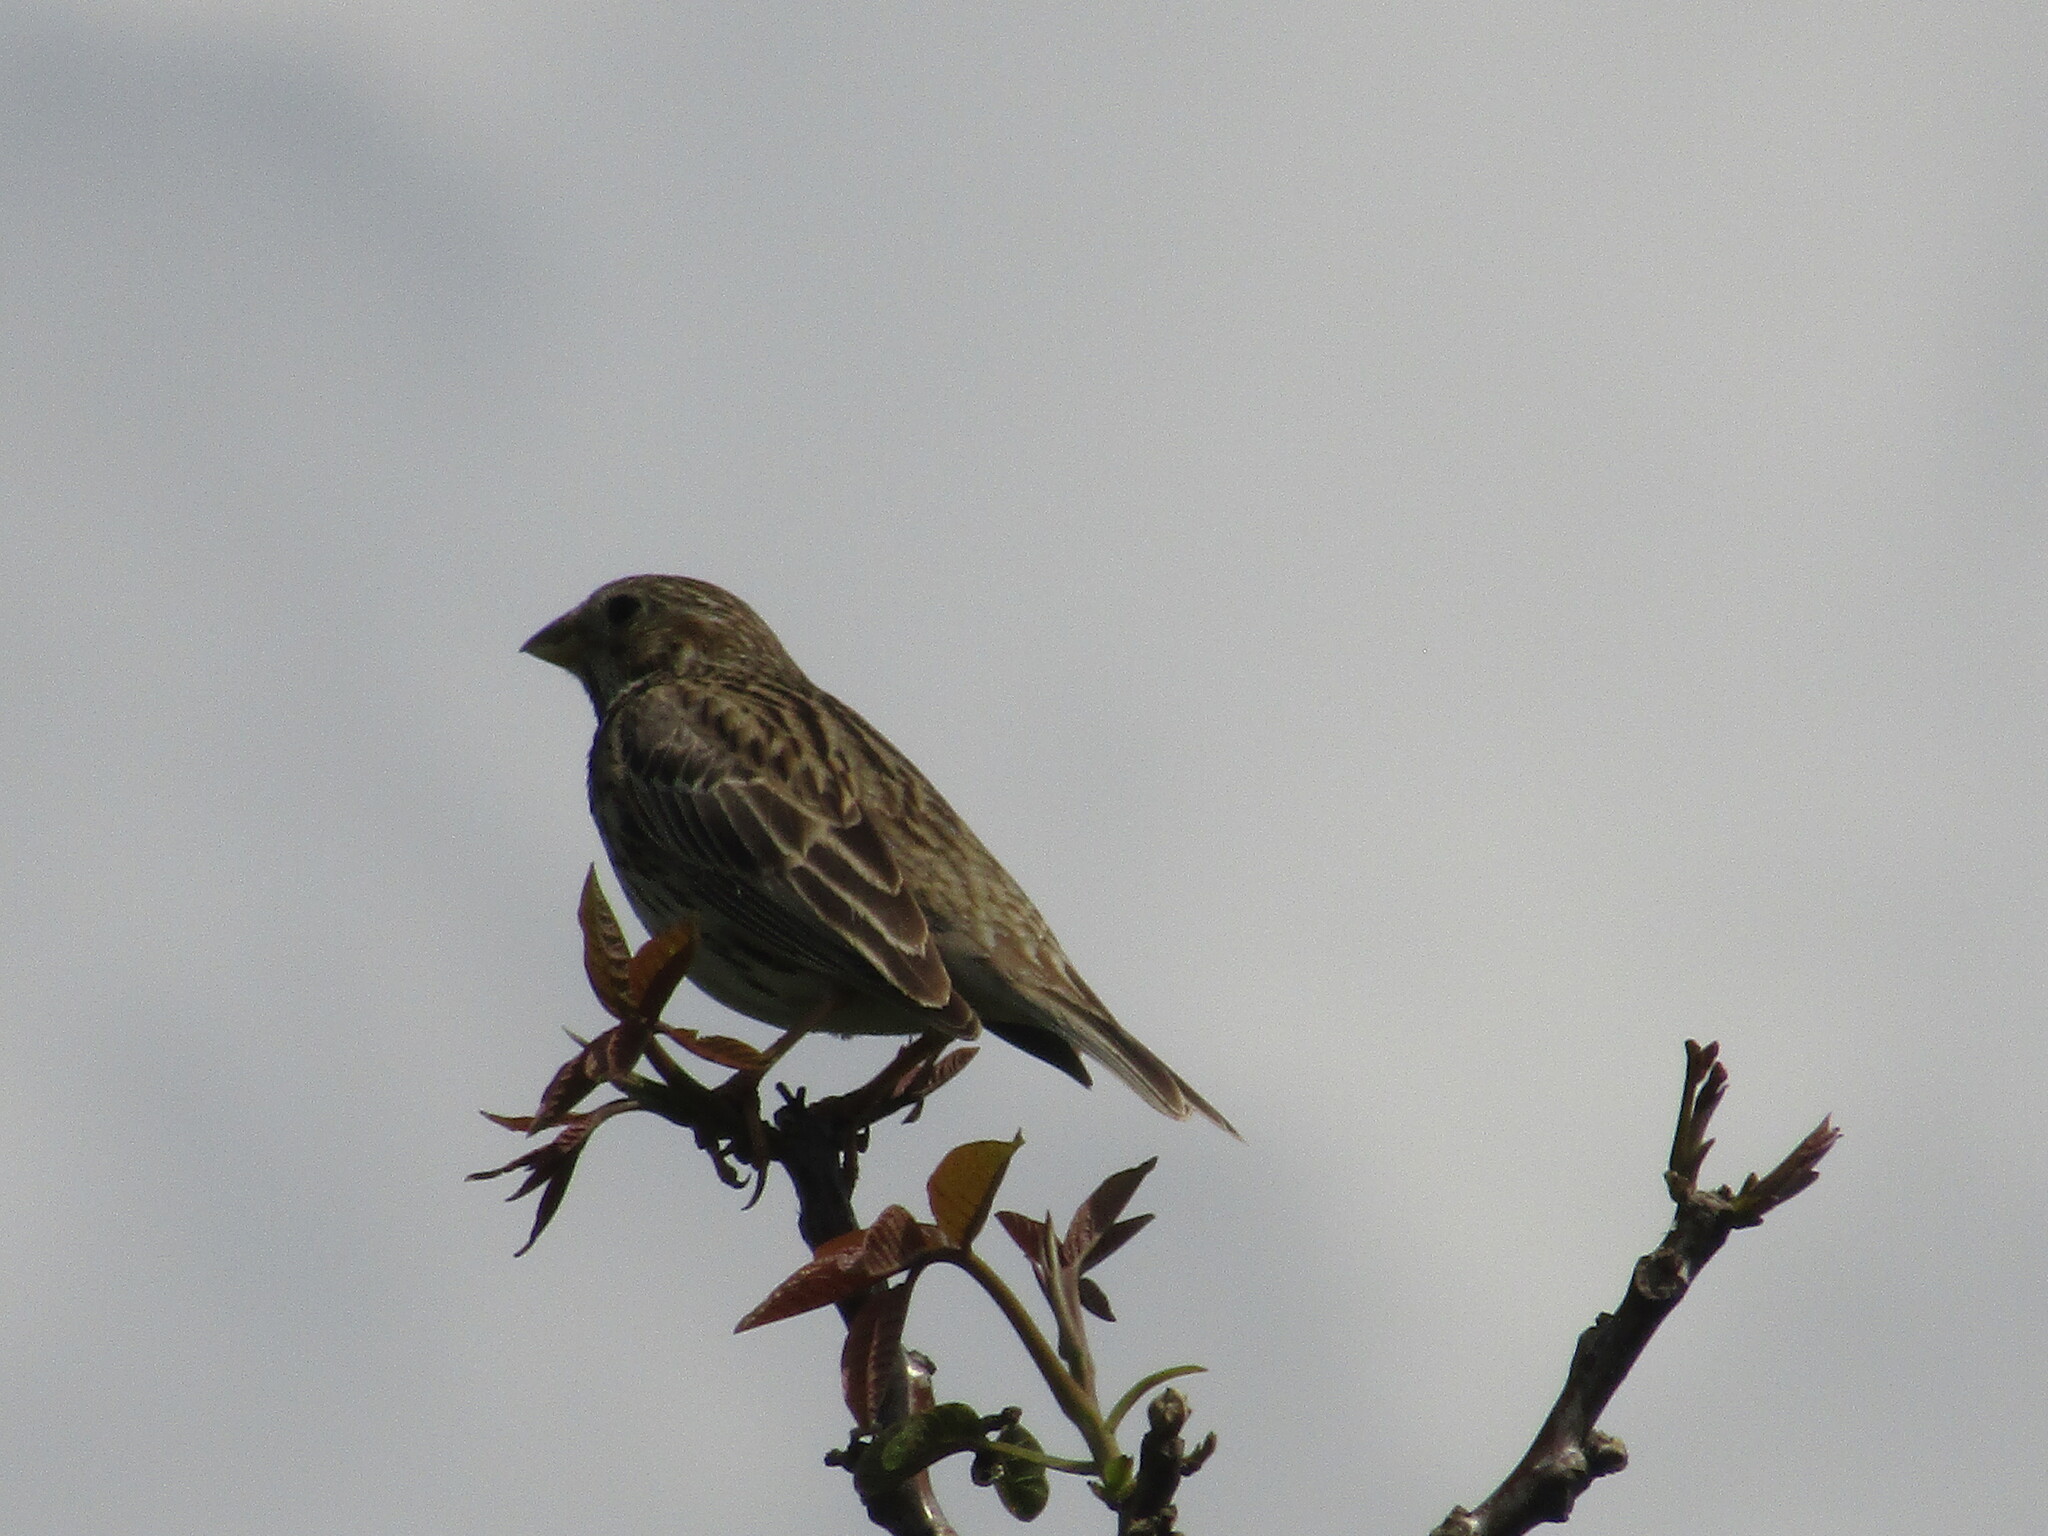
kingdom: Animalia
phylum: Chordata
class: Aves
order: Passeriformes
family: Emberizidae
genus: Emberiza
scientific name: Emberiza calandra
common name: Corn bunting
